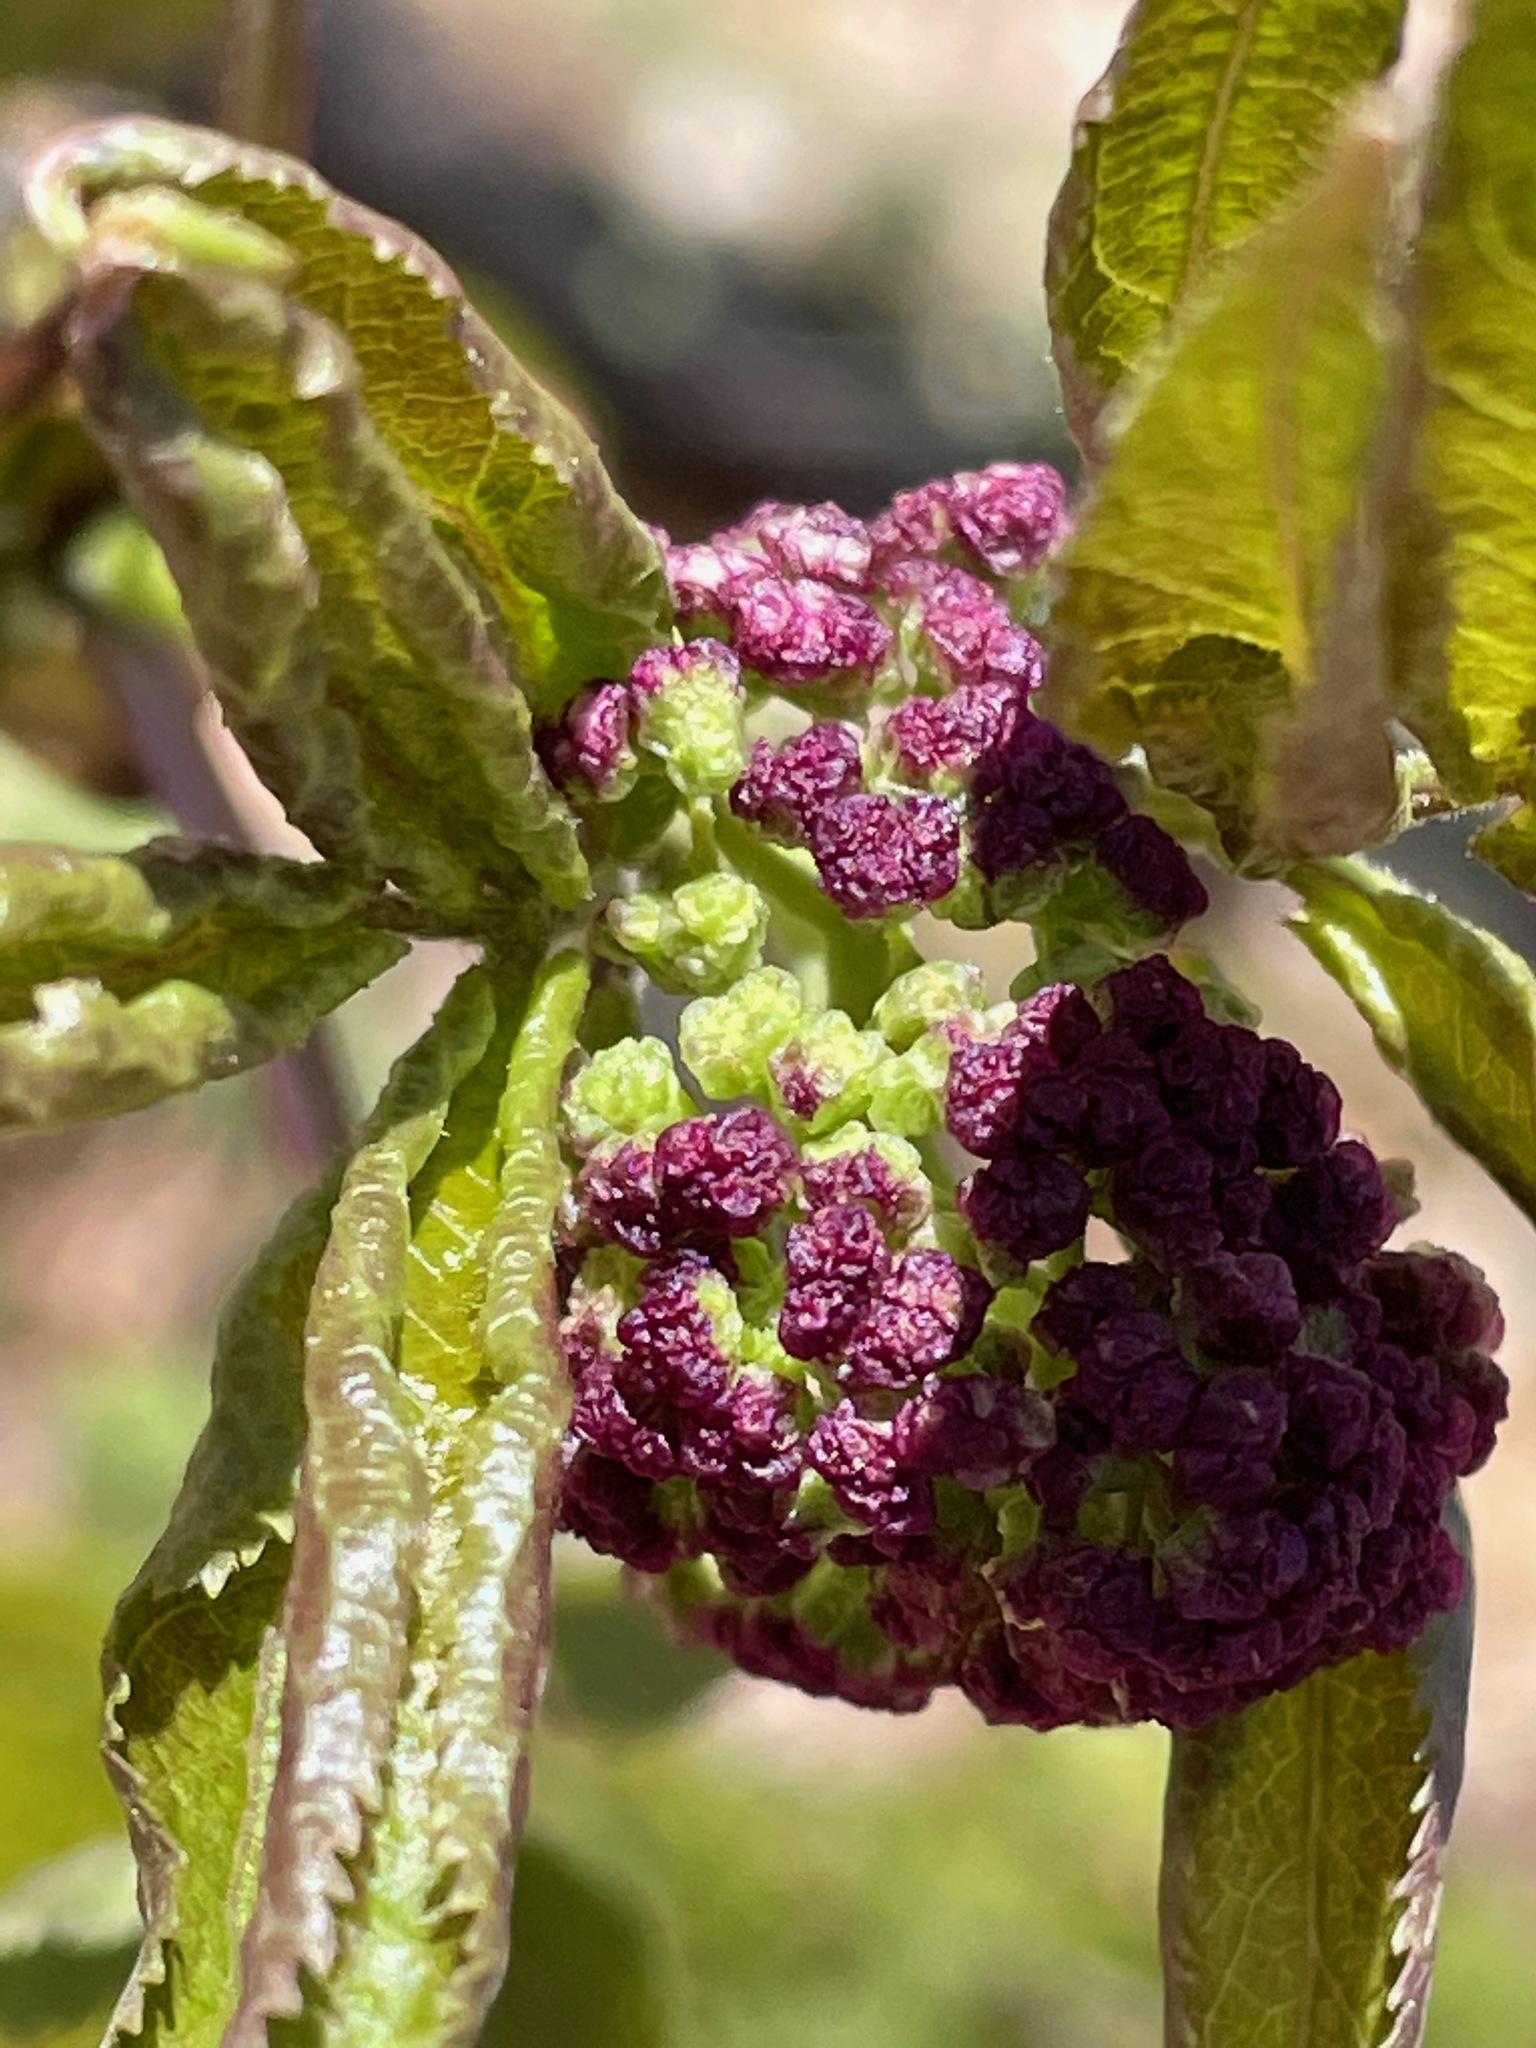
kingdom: Plantae
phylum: Tracheophyta
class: Magnoliopsida
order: Dipsacales
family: Viburnaceae
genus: Sambucus
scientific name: Sambucus racemosa
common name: Red-berried elder
